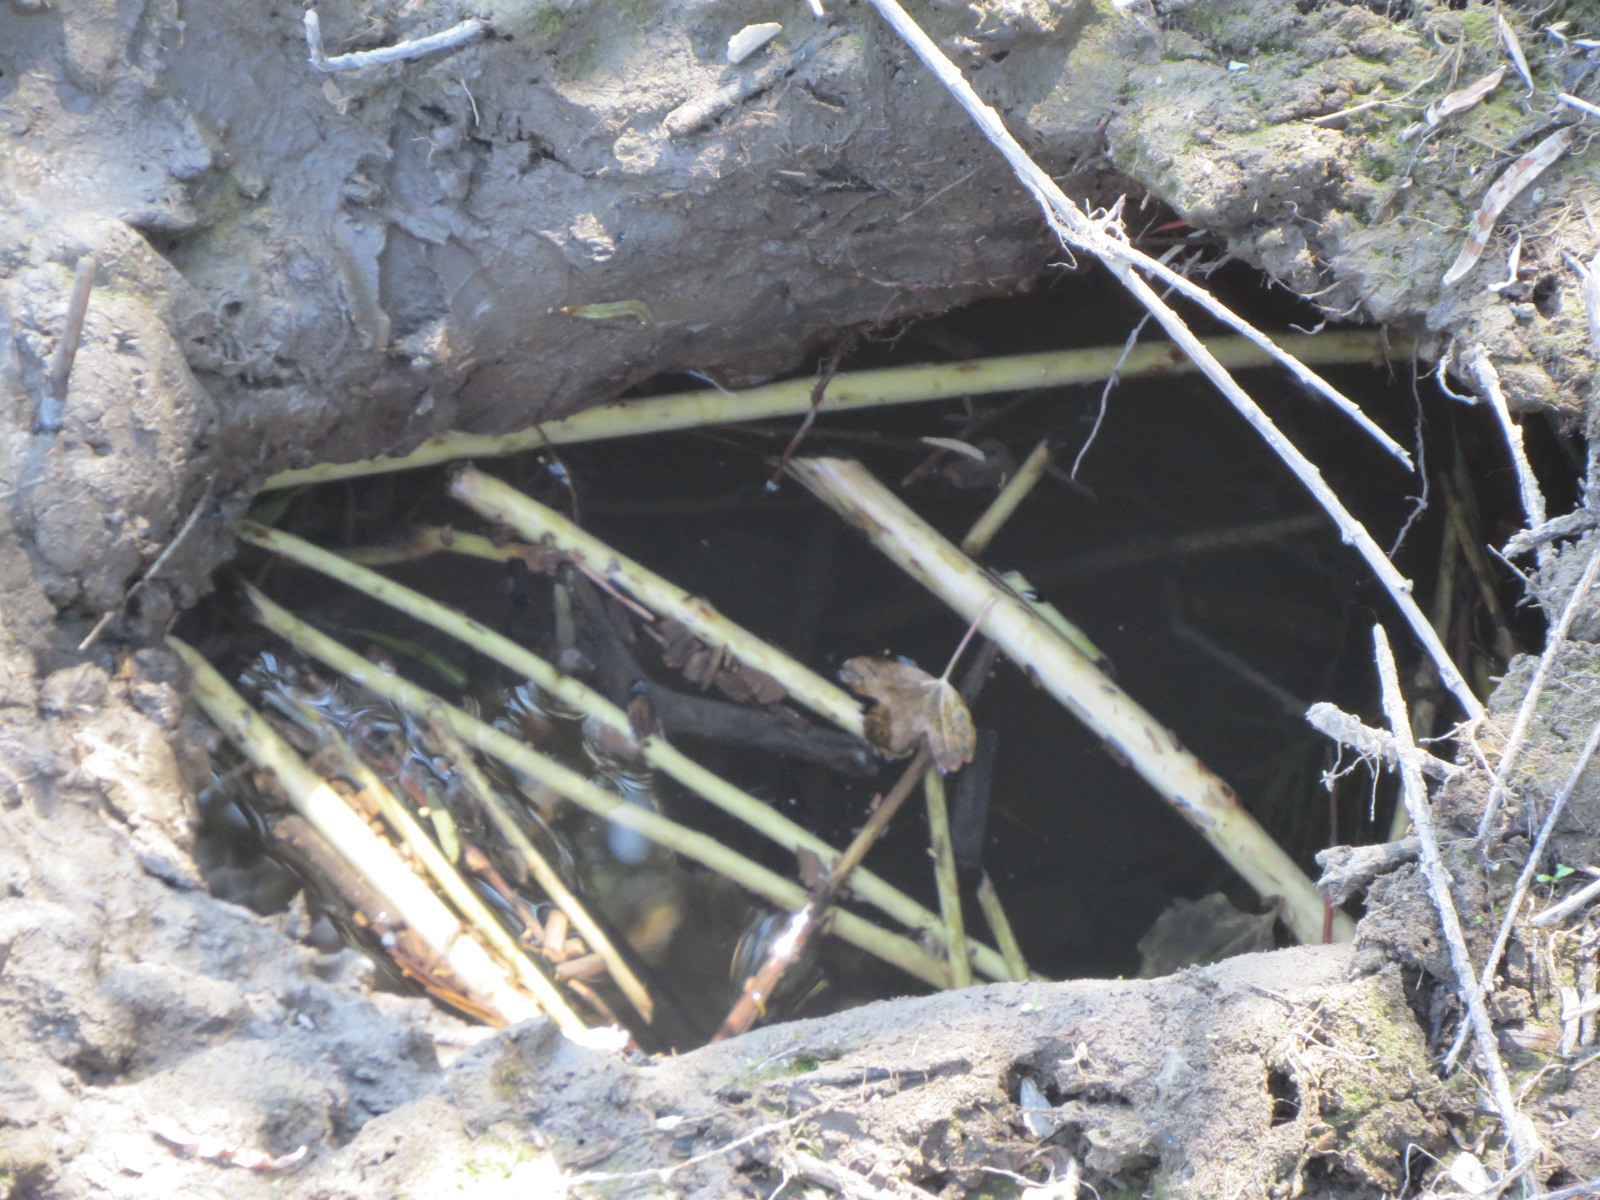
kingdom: Animalia
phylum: Chordata
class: Mammalia
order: Rodentia
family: Castoridae
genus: Castor
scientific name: Castor canadensis
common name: American beaver
